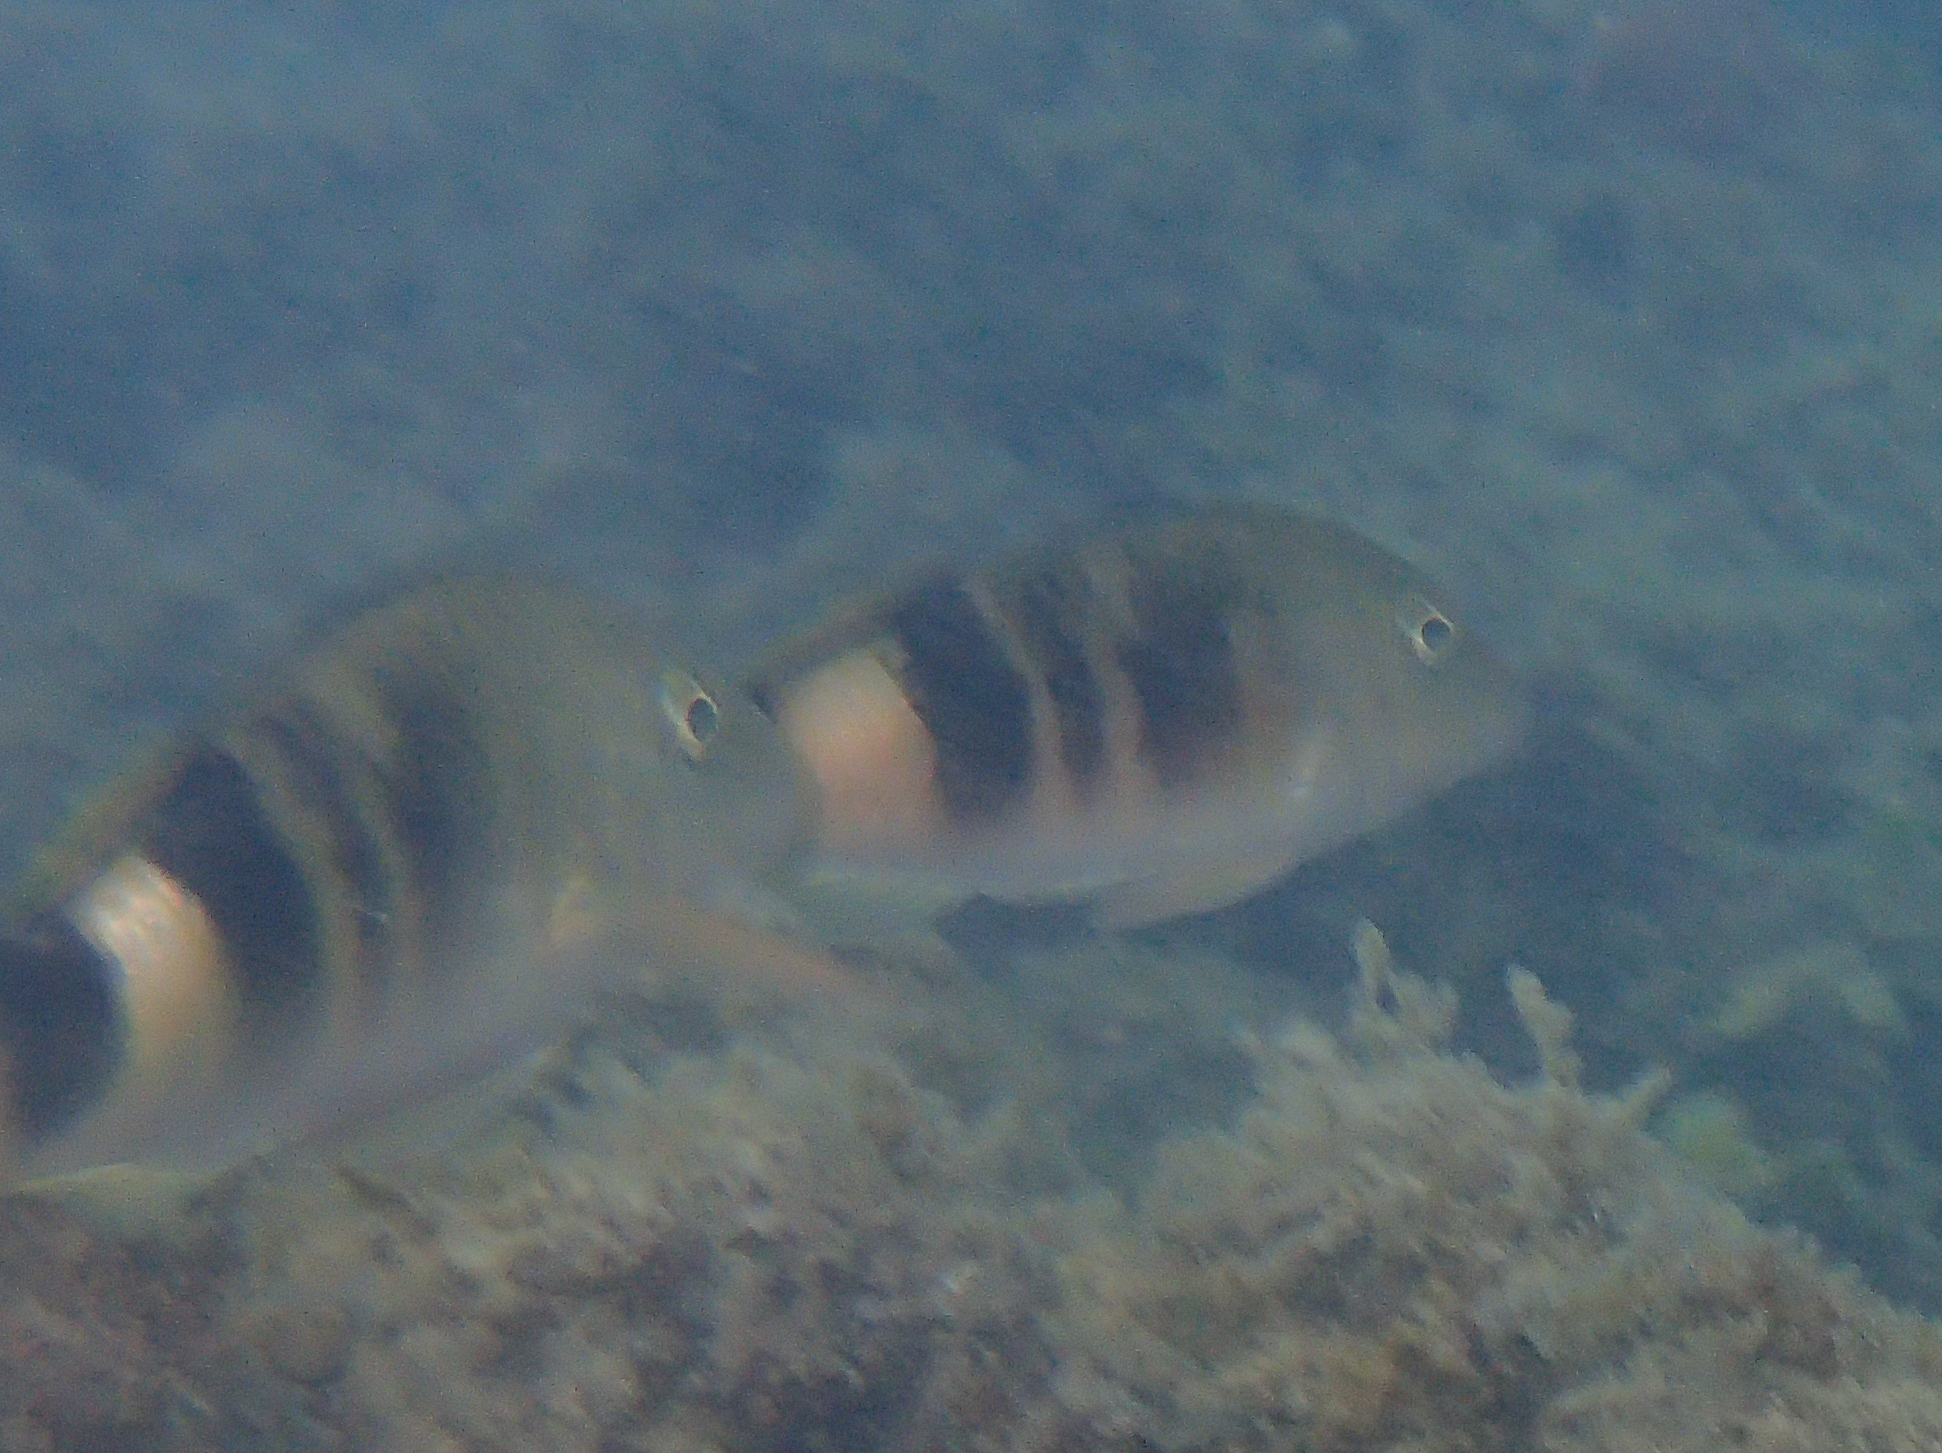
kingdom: Animalia
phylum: Chordata
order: Perciformes
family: Mullidae
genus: Parupeneus
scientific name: Parupeneus multifasciatus
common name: Manybar goatfish
